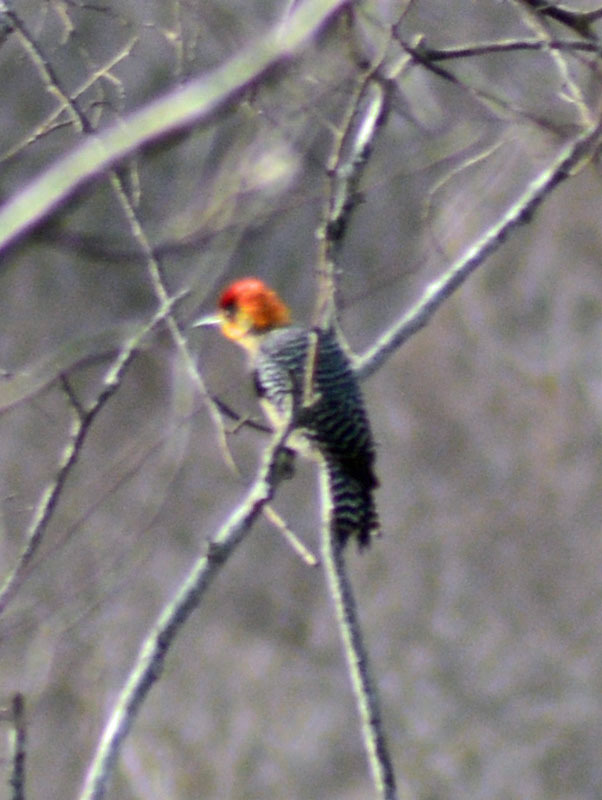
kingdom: Animalia
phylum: Chordata
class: Aves
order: Piciformes
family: Picidae
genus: Melanerpes
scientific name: Melanerpes chrysogenys
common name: Golden-cheeked woodpecker
